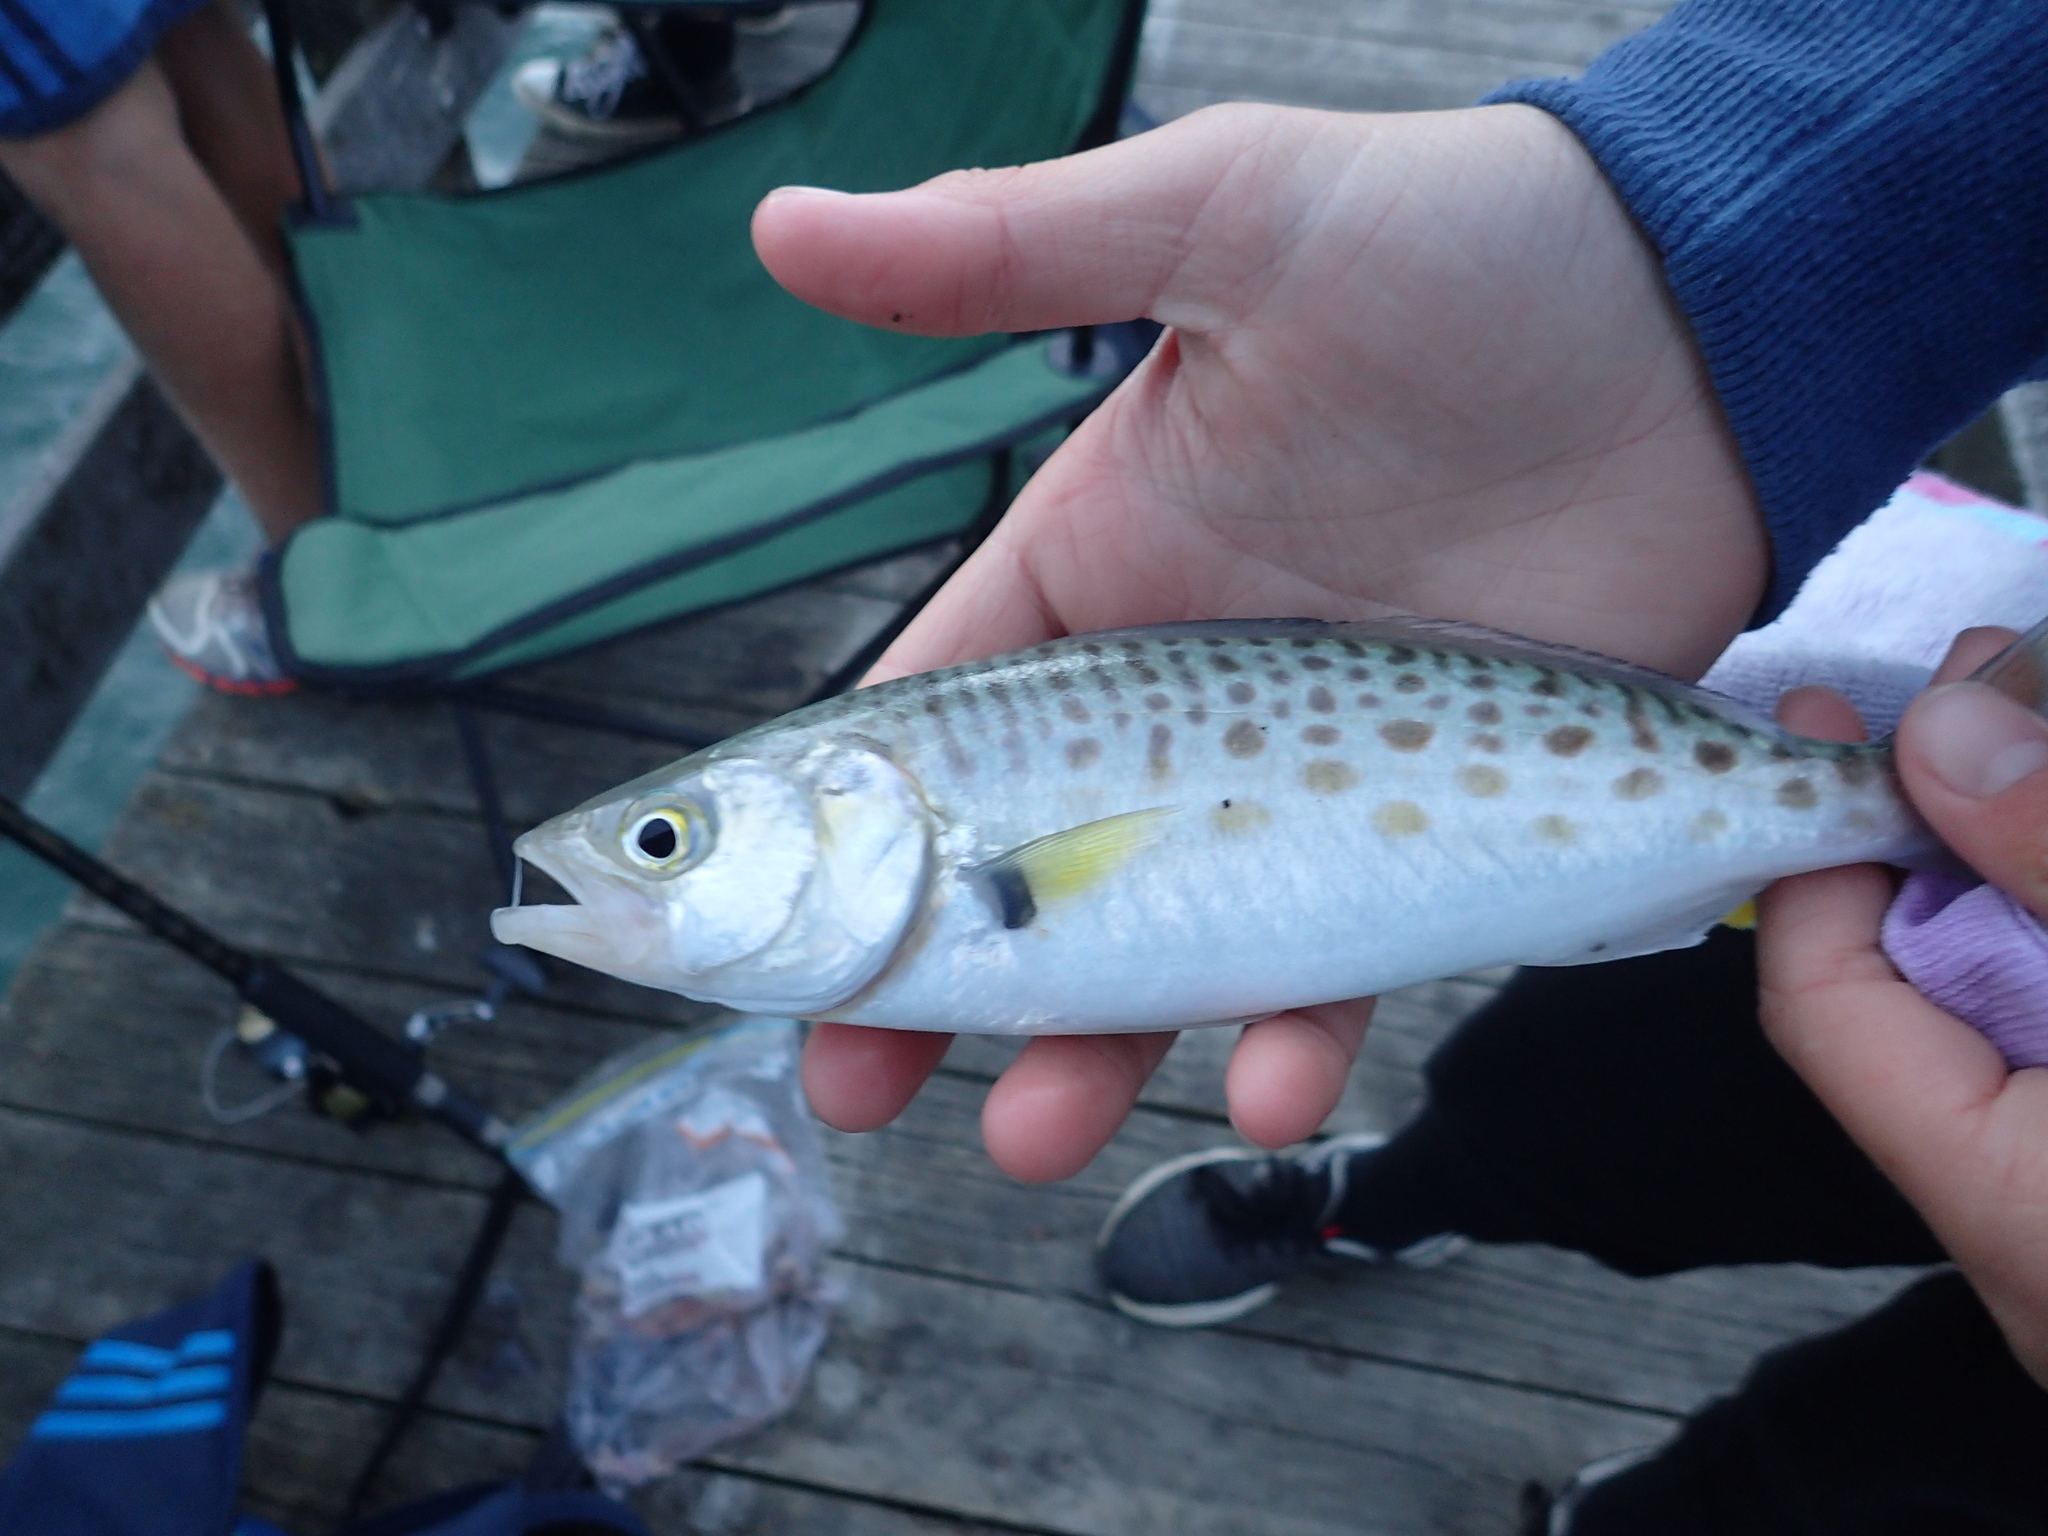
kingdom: Animalia
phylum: Chordata
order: Perciformes
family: Arripidae
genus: Arripis
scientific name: Arripis trutta
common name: Kahawai
